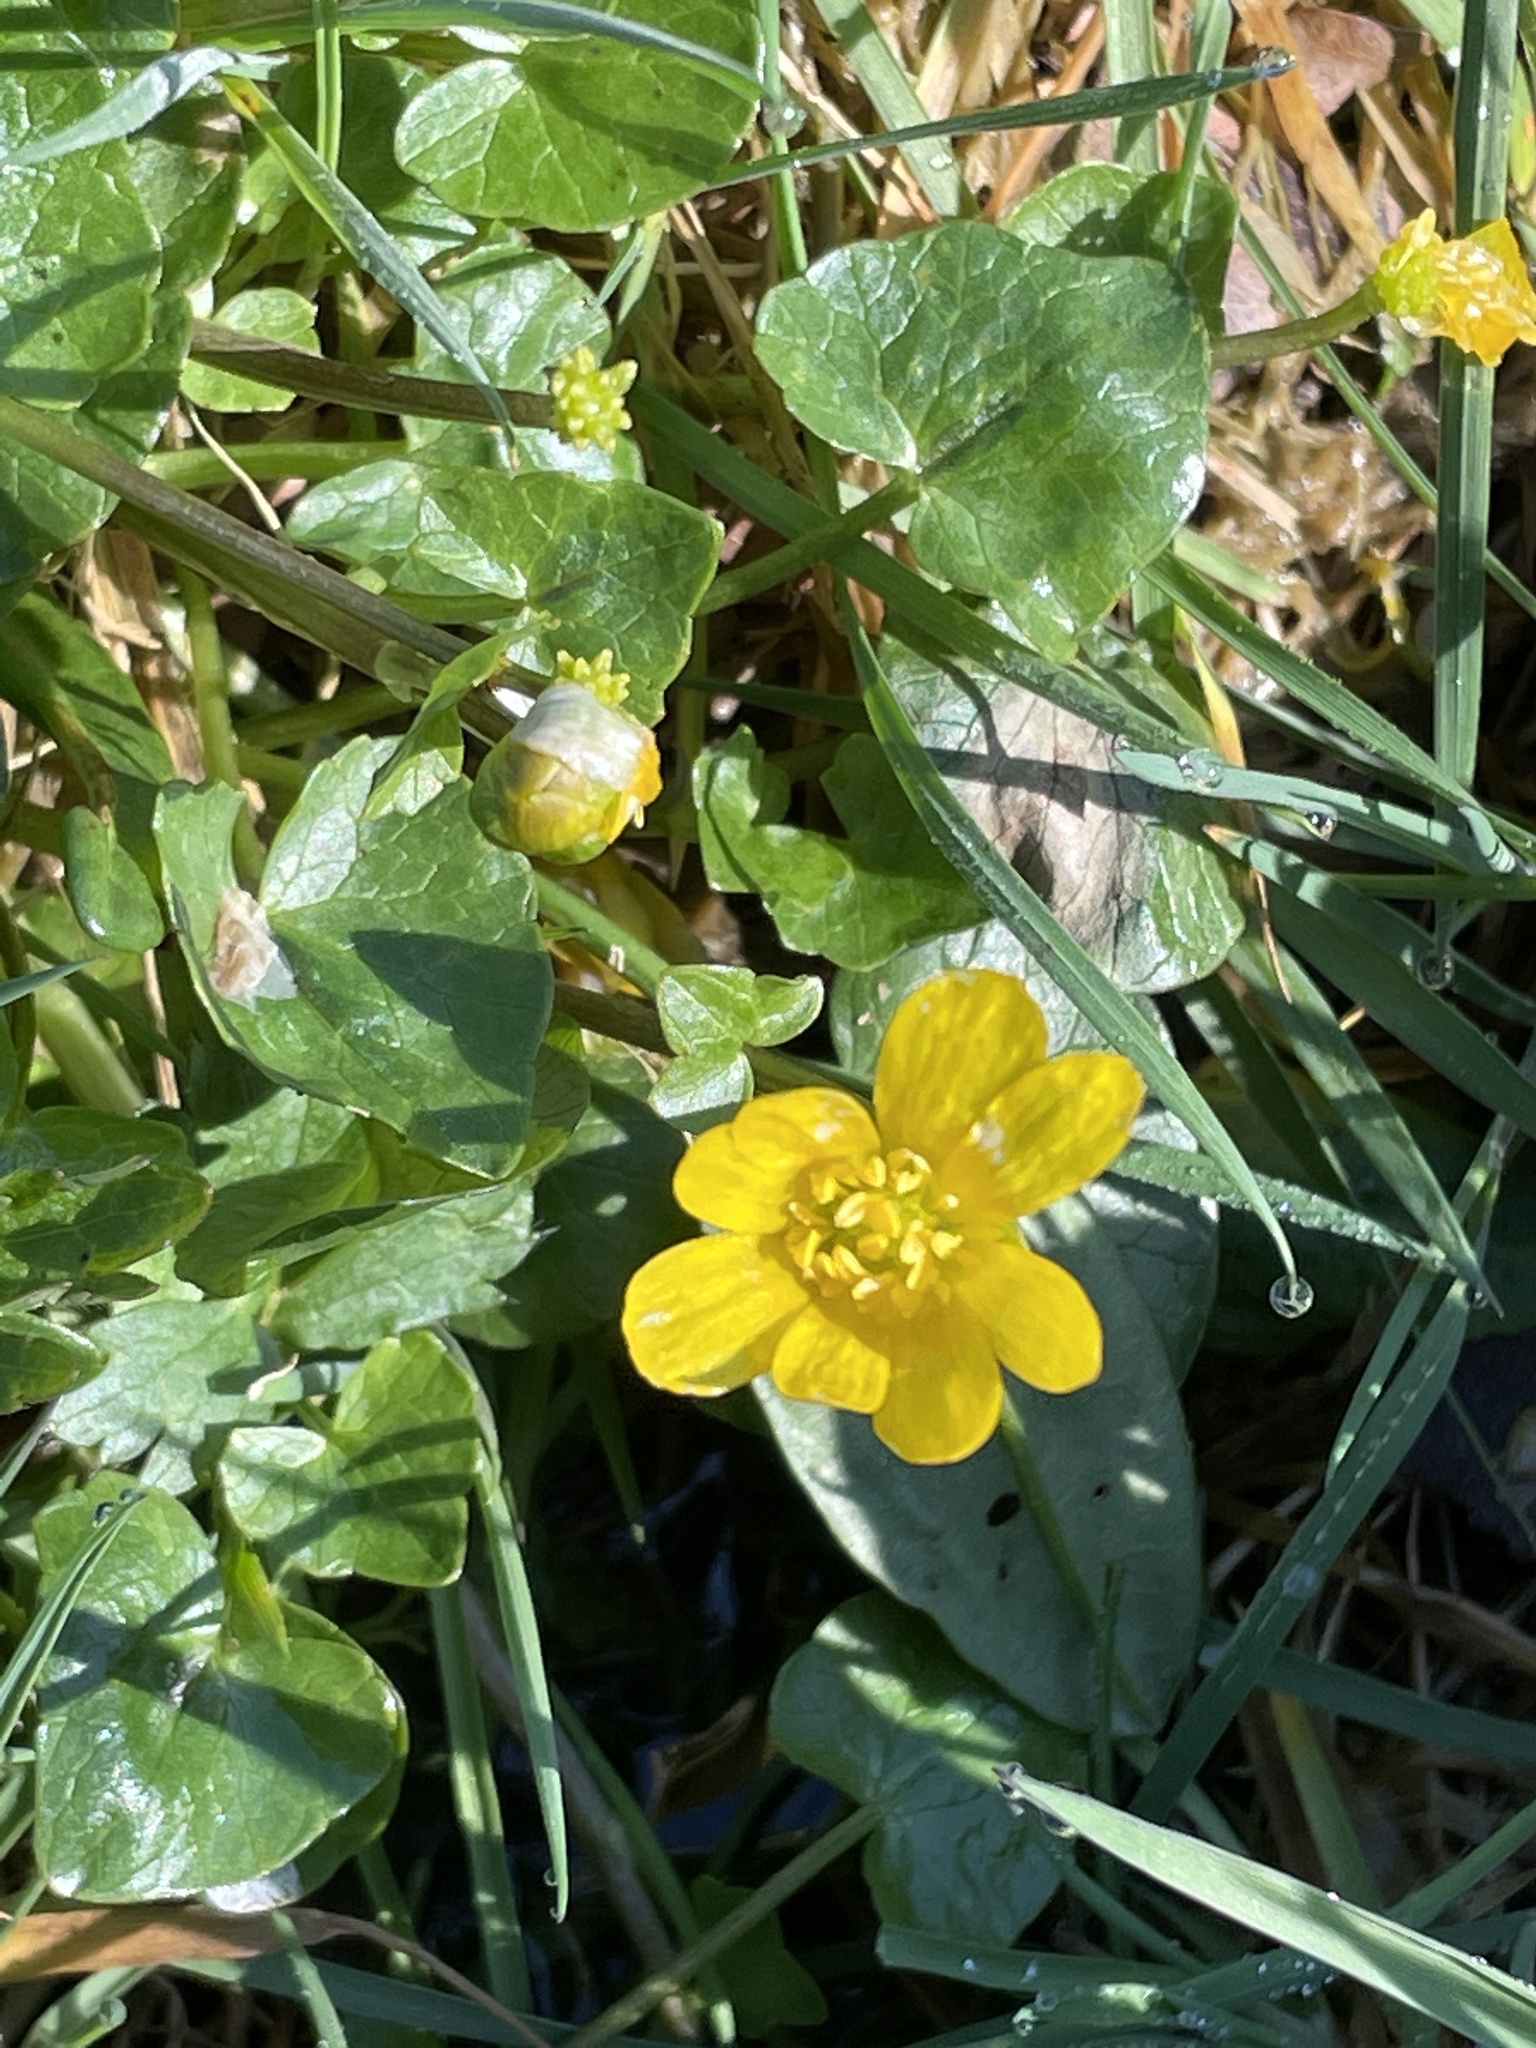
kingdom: Plantae
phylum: Tracheophyta
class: Magnoliopsida
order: Ranunculales
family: Ranunculaceae
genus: Ficaria
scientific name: Ficaria verna
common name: Lesser celandine
